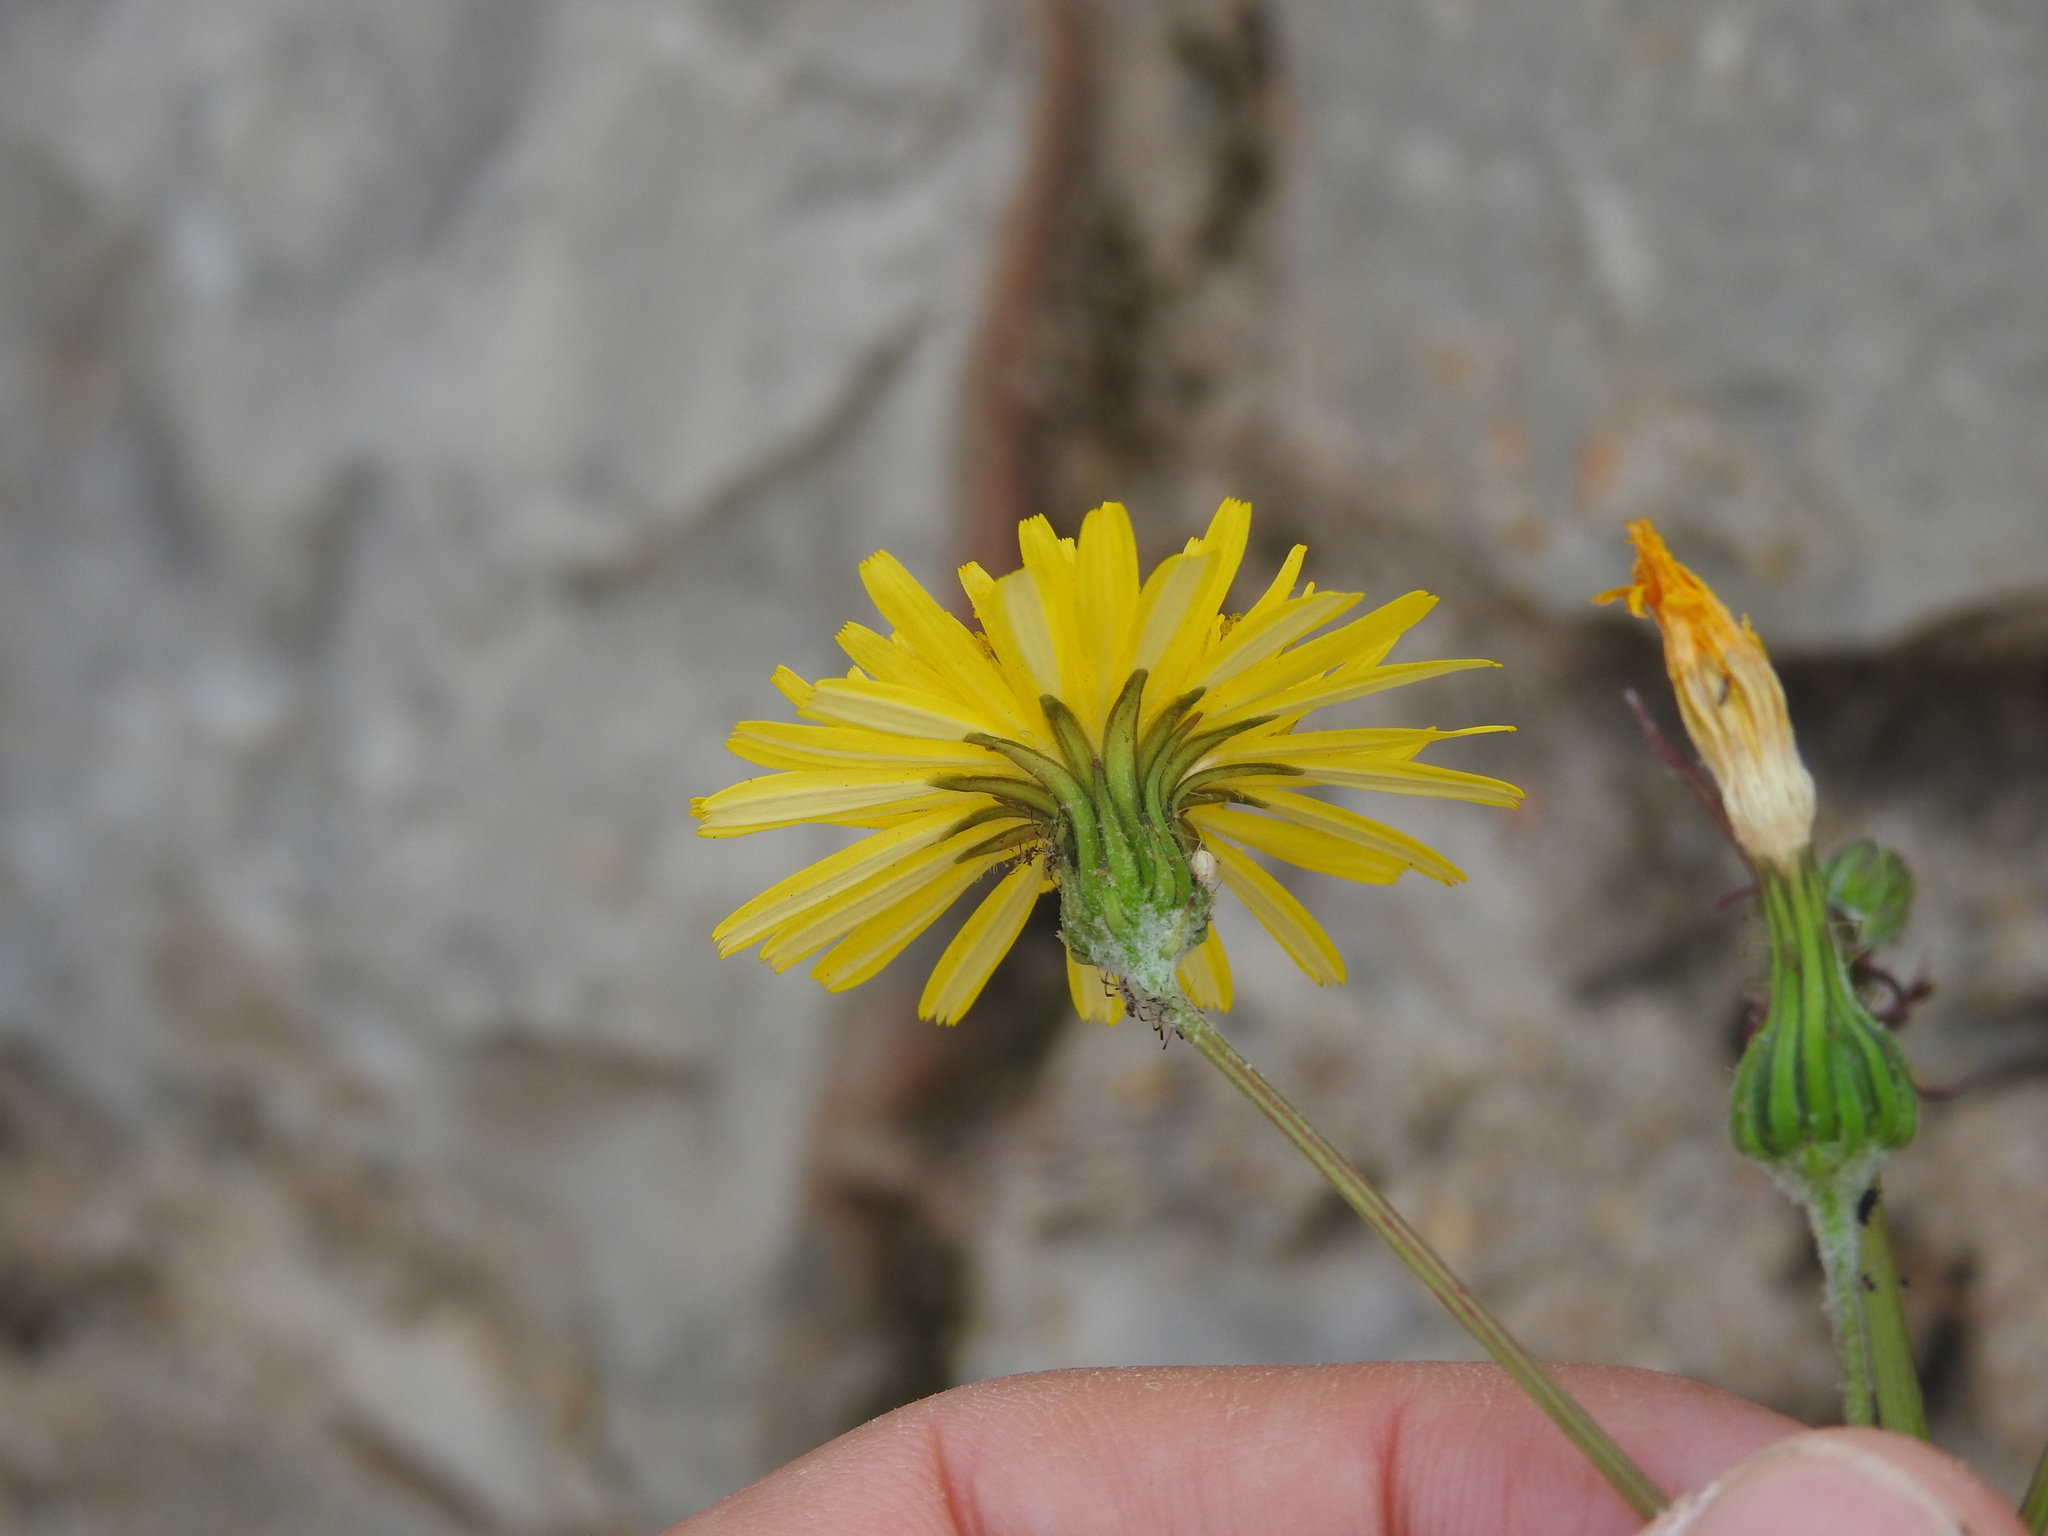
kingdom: Plantae
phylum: Tracheophyta
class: Magnoliopsida
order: Asterales
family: Asteraceae
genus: Sonchus
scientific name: Sonchus tenerrimus
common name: Clammy sowthistle
